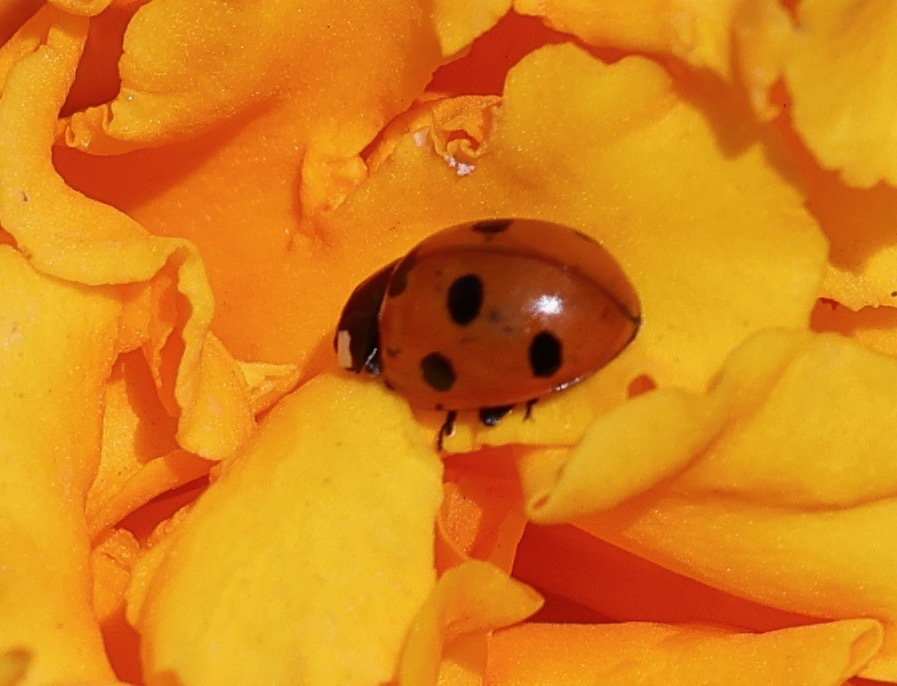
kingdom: Animalia
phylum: Arthropoda
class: Insecta
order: Coleoptera
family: Coccinellidae
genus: Coccinella
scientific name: Coccinella septempunctata
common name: Sevenspotted lady beetle
